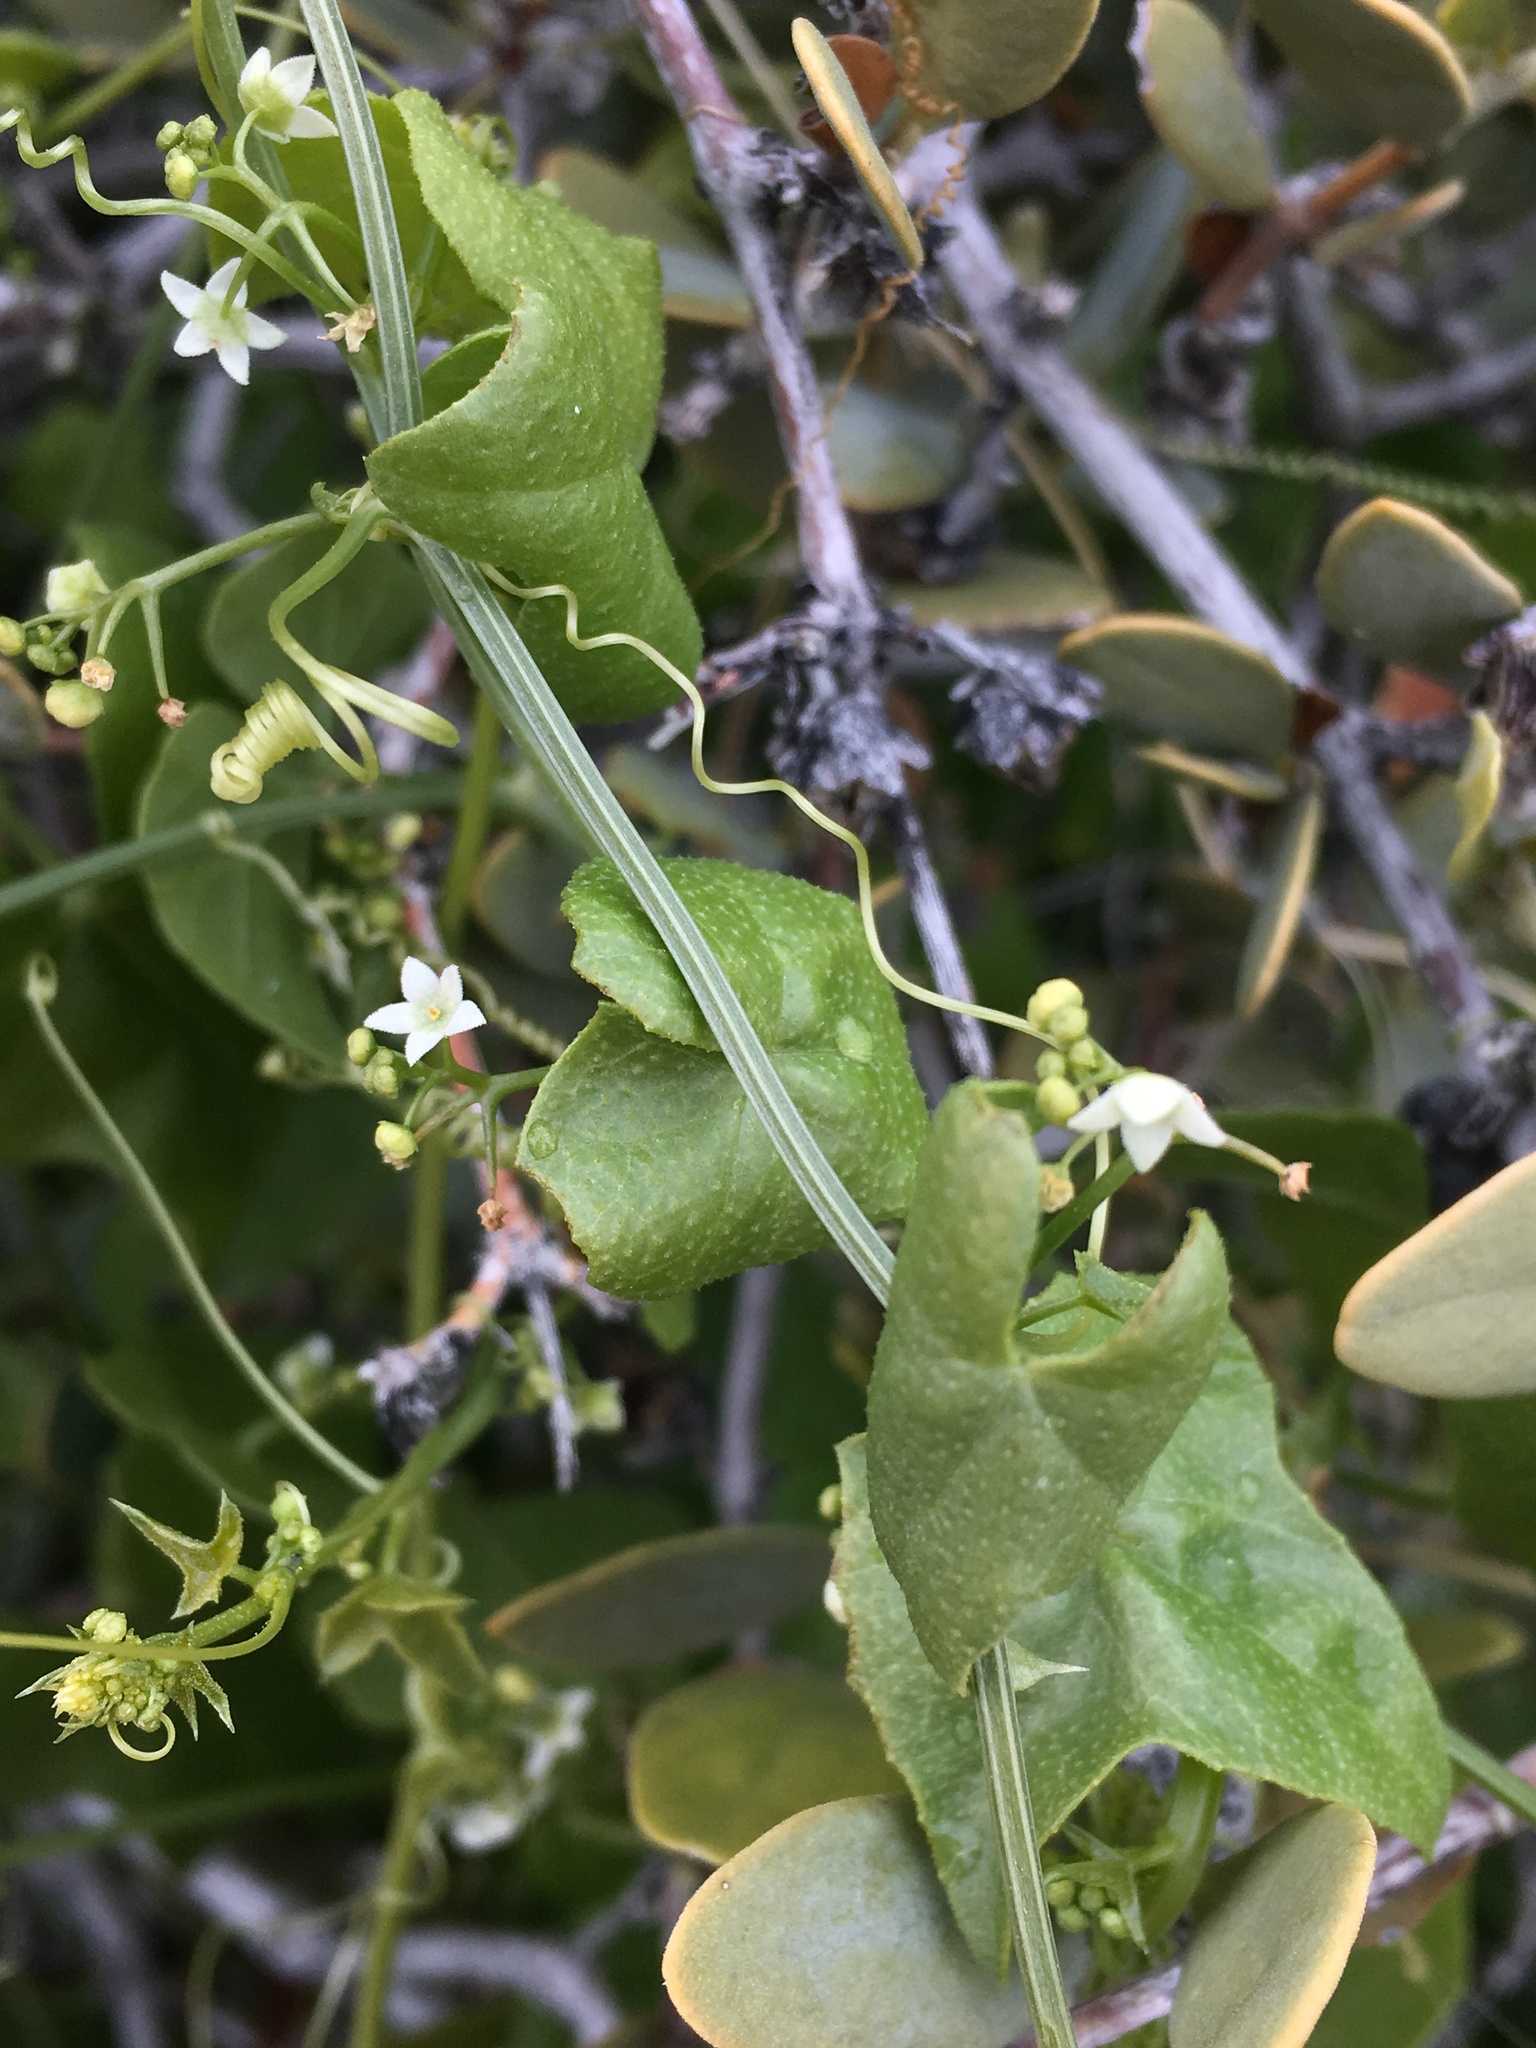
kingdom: Plantae
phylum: Tracheophyta
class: Magnoliopsida
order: Cucurbitales
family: Cucurbitaceae
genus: Echinopepon
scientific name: Echinopepon bigelovii
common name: Desert starvine
